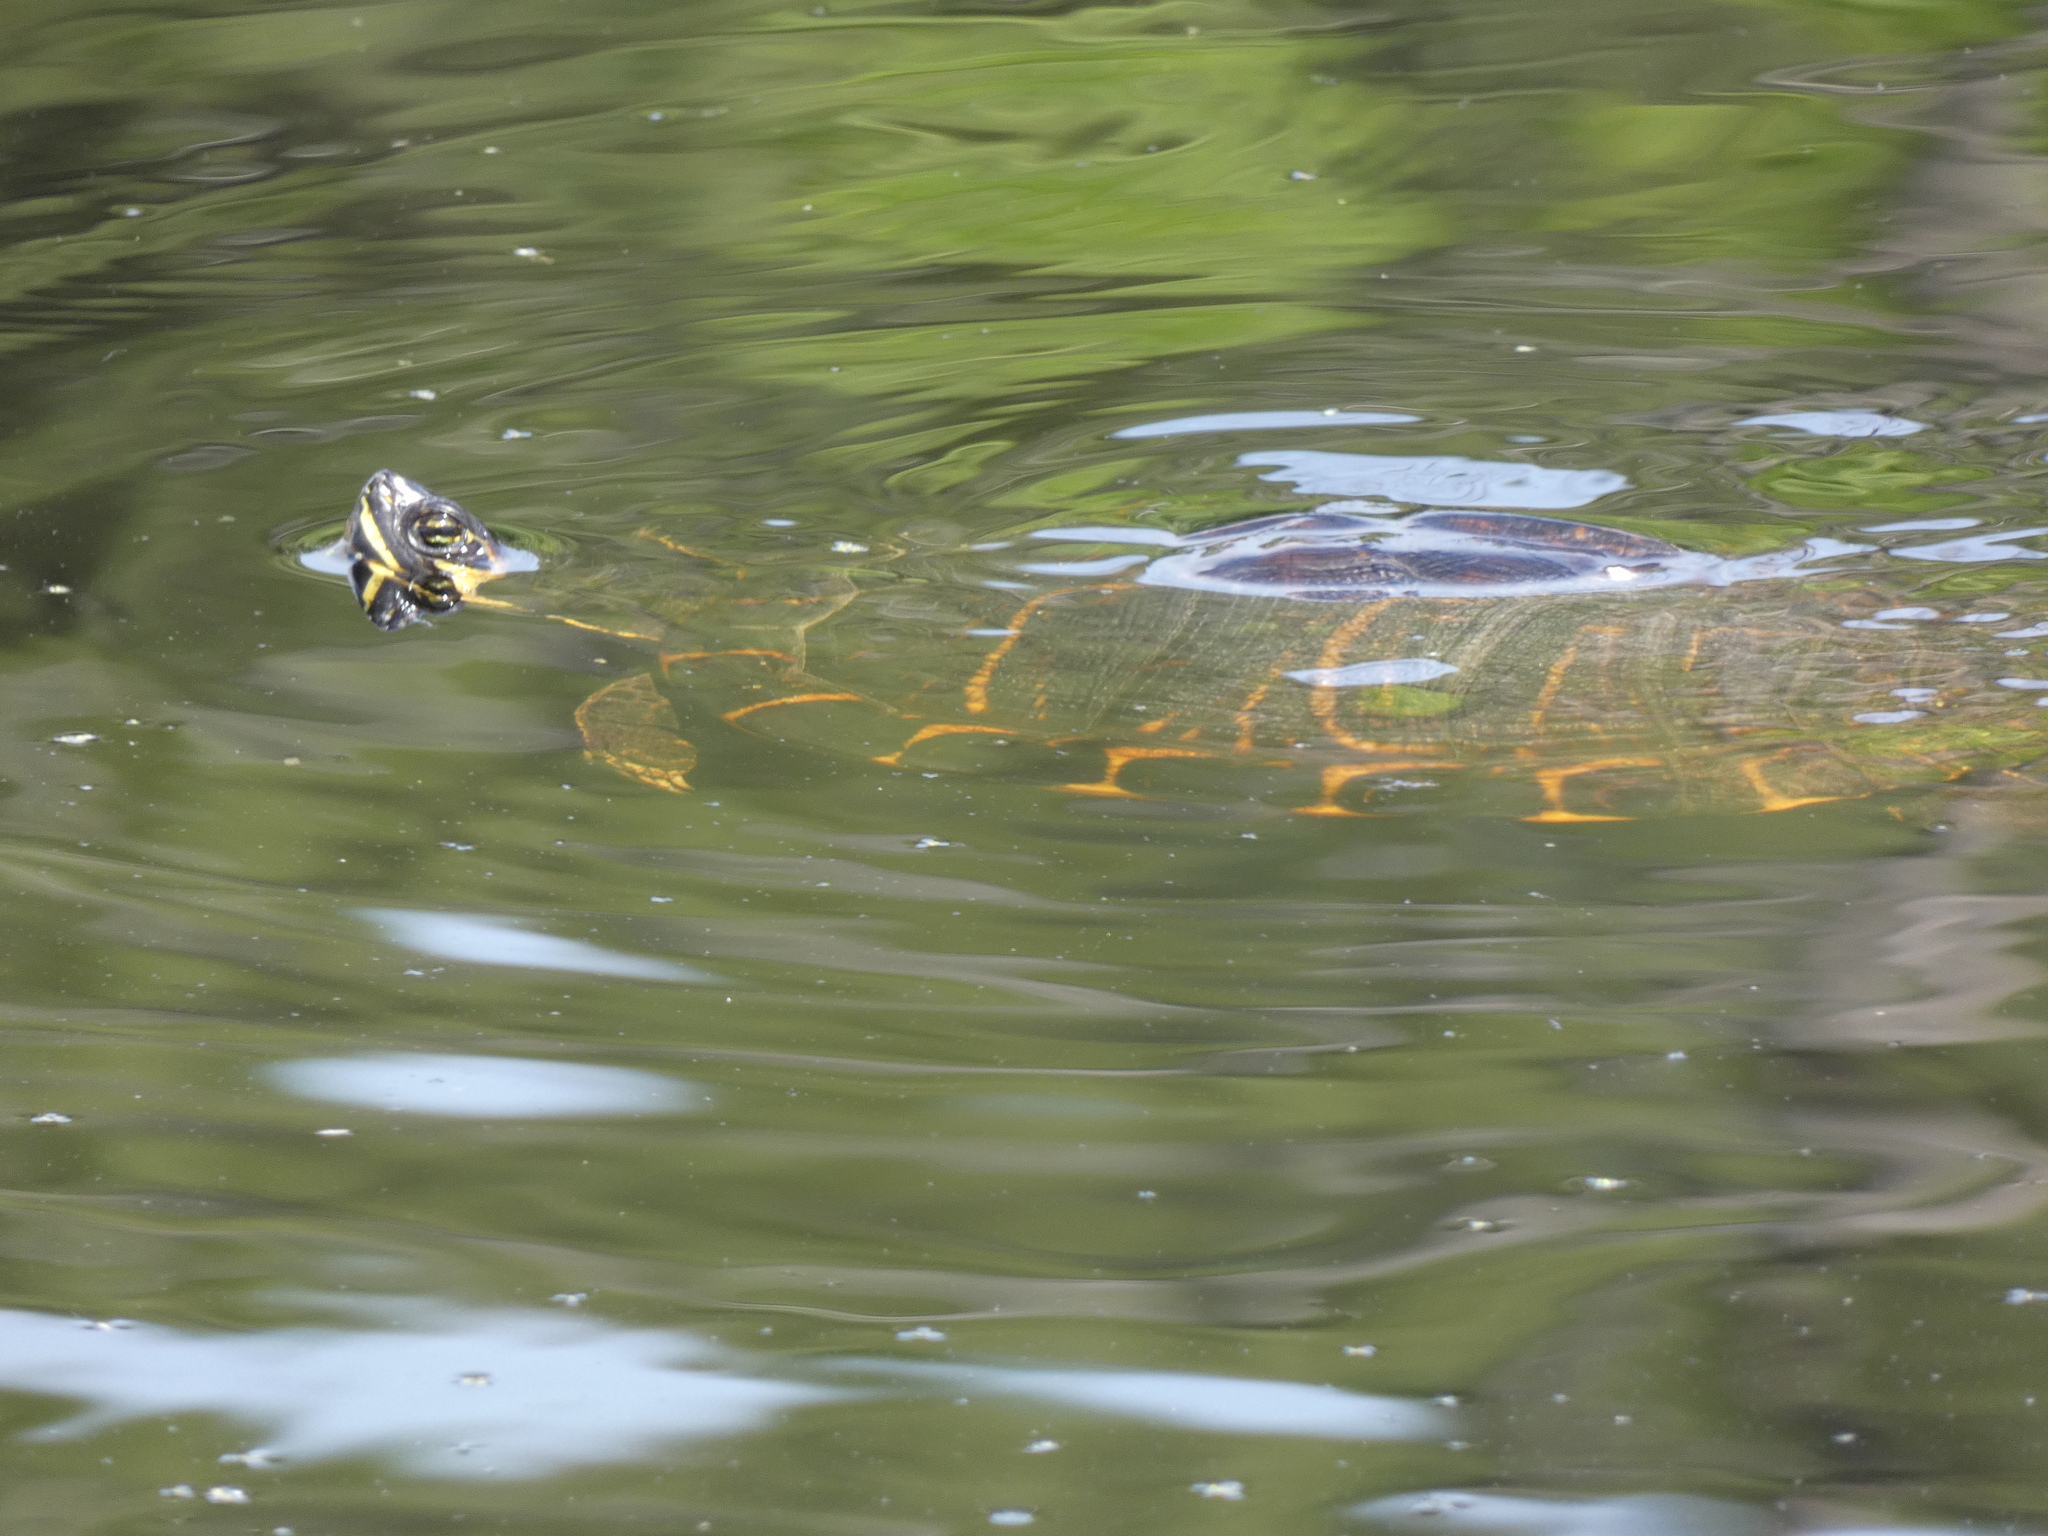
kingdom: Animalia
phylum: Chordata
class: Testudines
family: Emydidae
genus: Trachemys
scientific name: Trachemys scripta
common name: Slider
